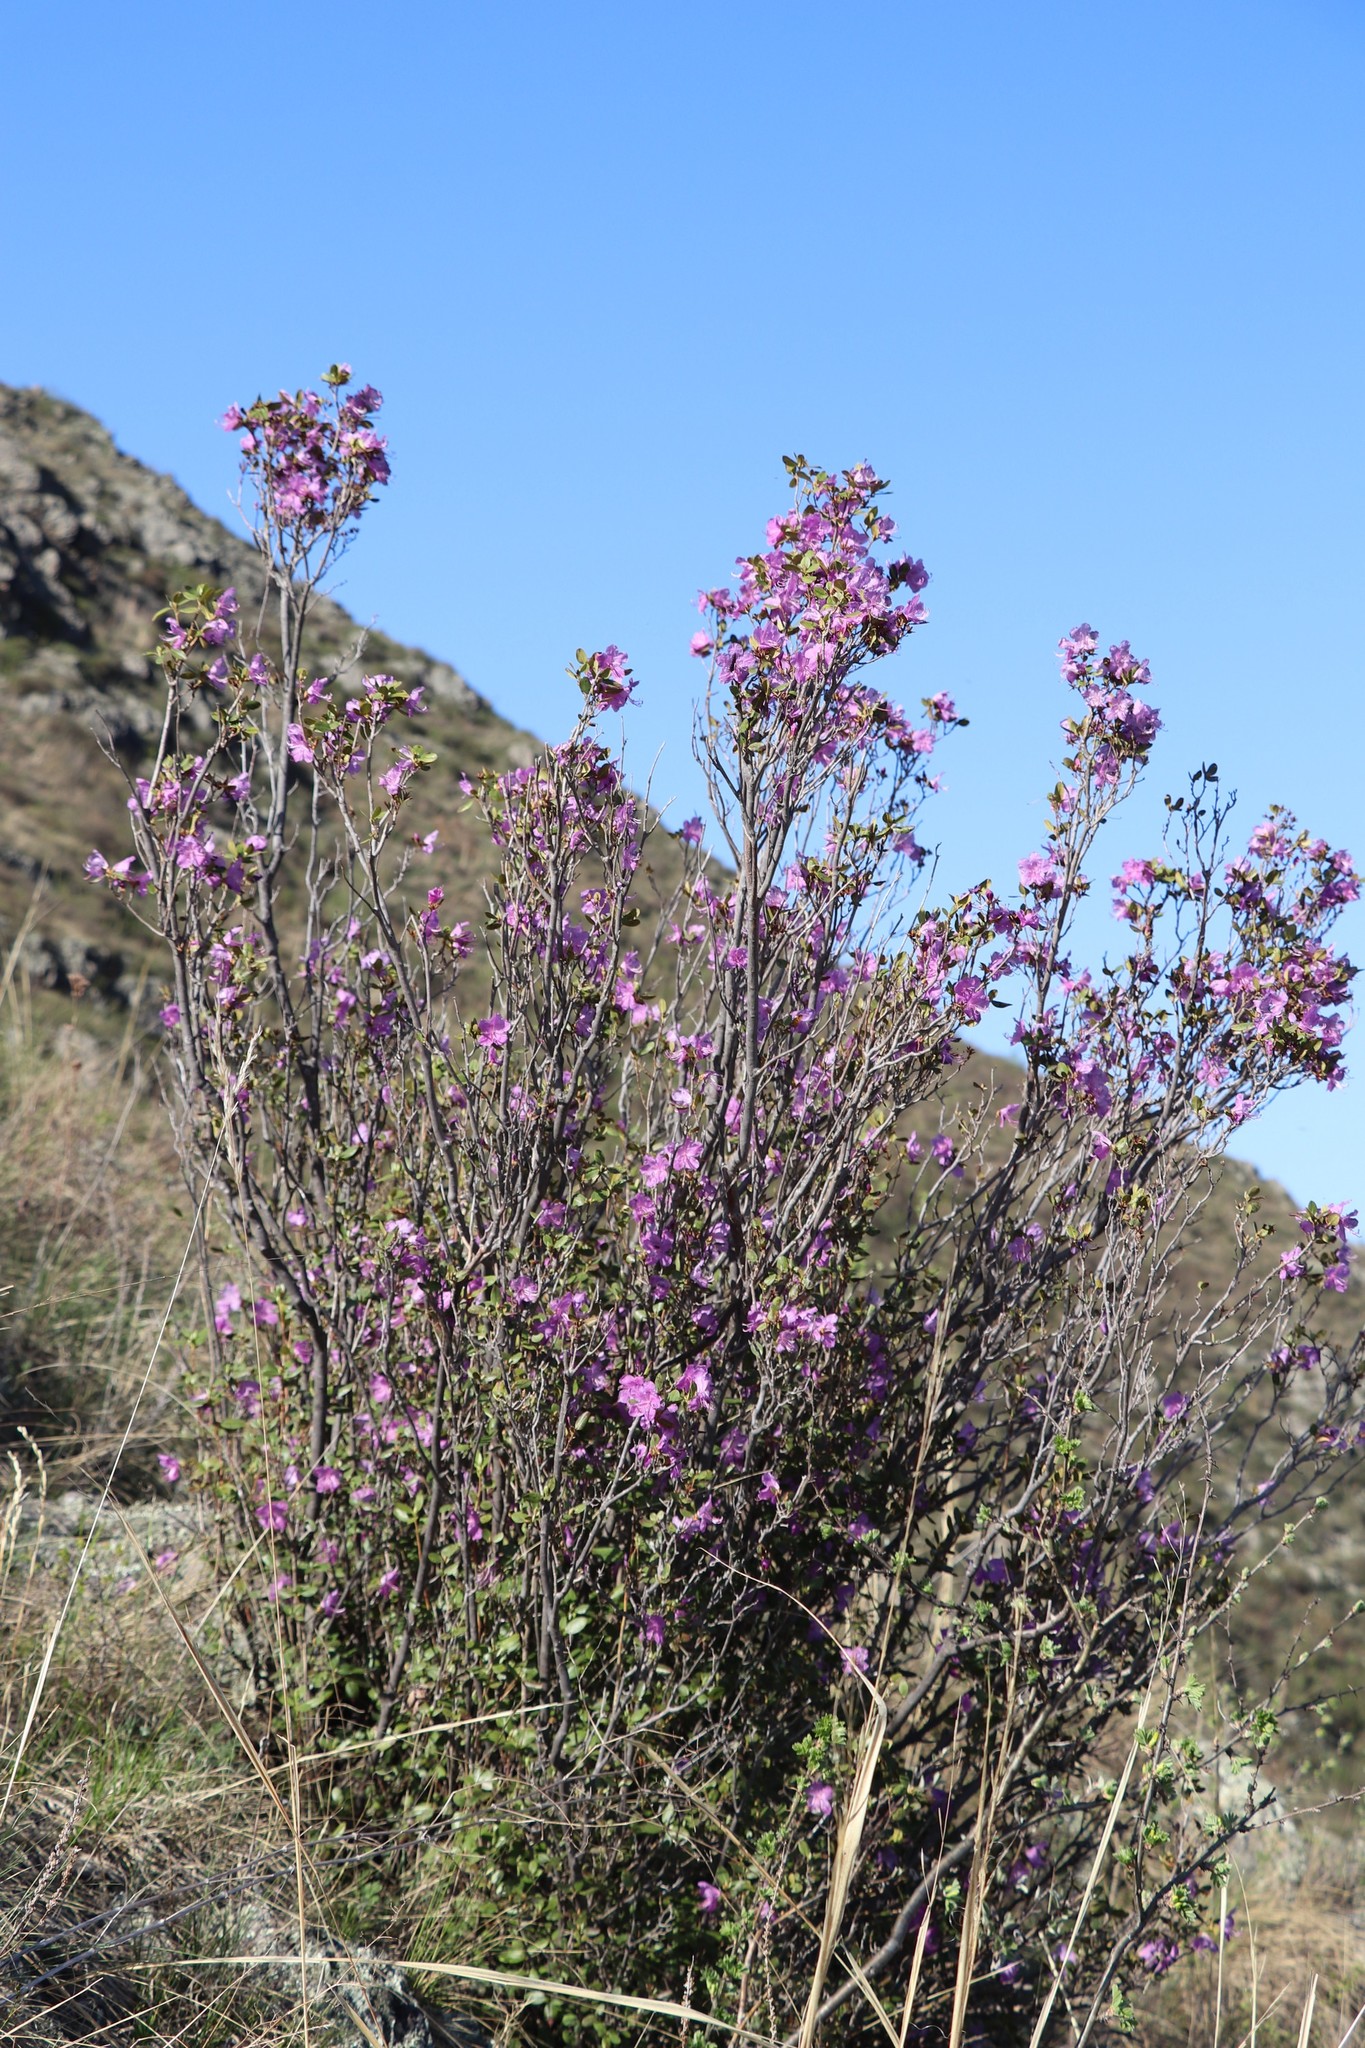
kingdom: Plantae
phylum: Tracheophyta
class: Magnoliopsida
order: Ericales
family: Ericaceae
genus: Rhododendron
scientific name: Rhododendron dauricum
